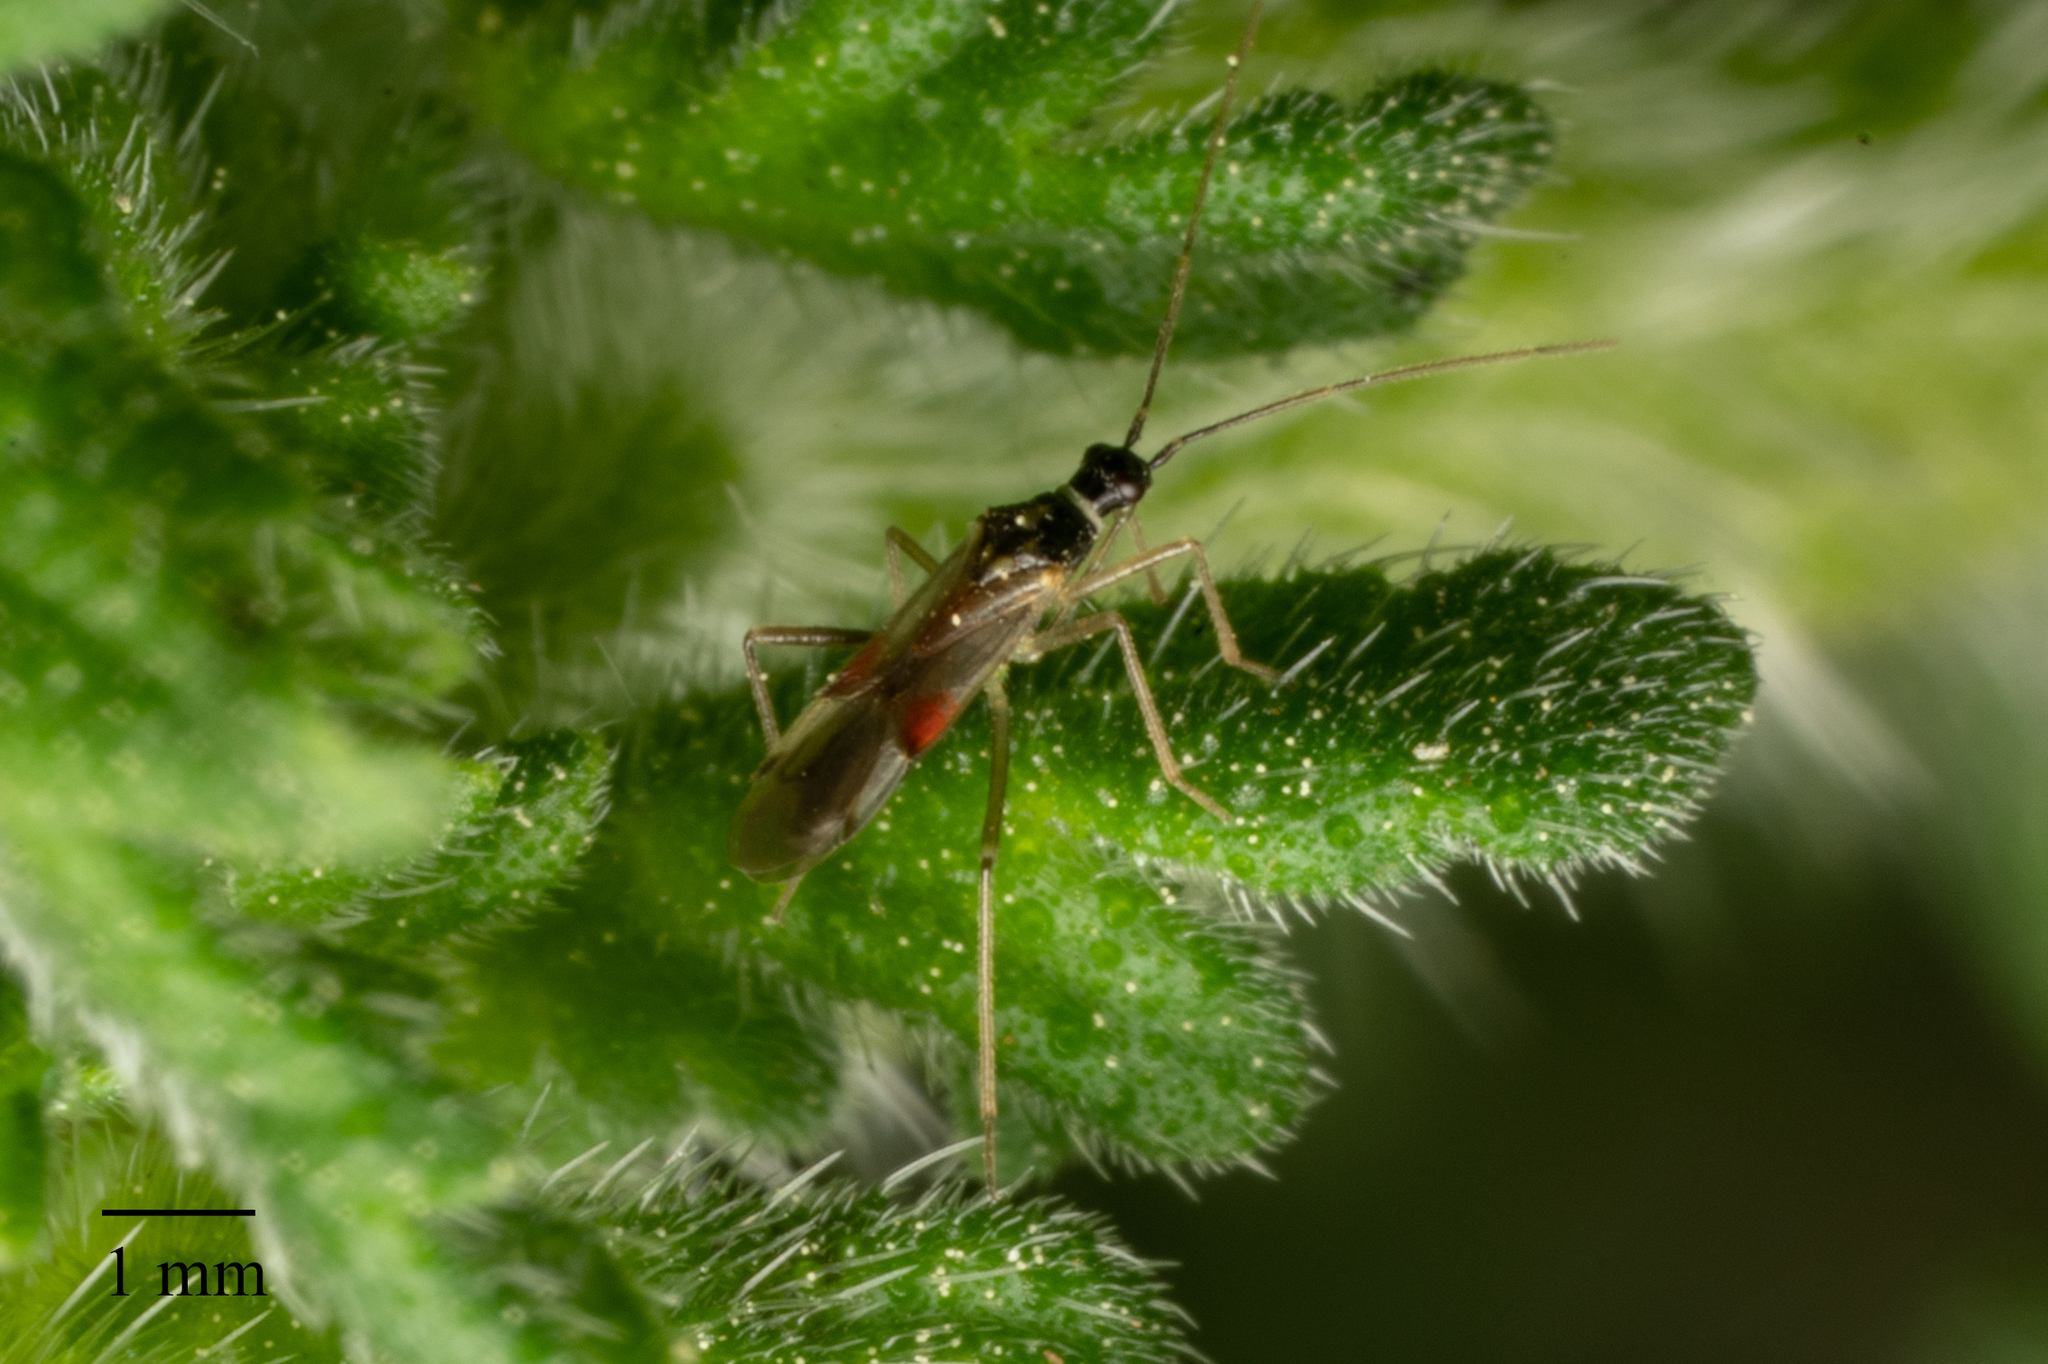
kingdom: Animalia
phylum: Arthropoda
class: Insecta
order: Hemiptera
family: Miridae
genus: Tupiocoris
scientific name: Tupiocoris californicus
